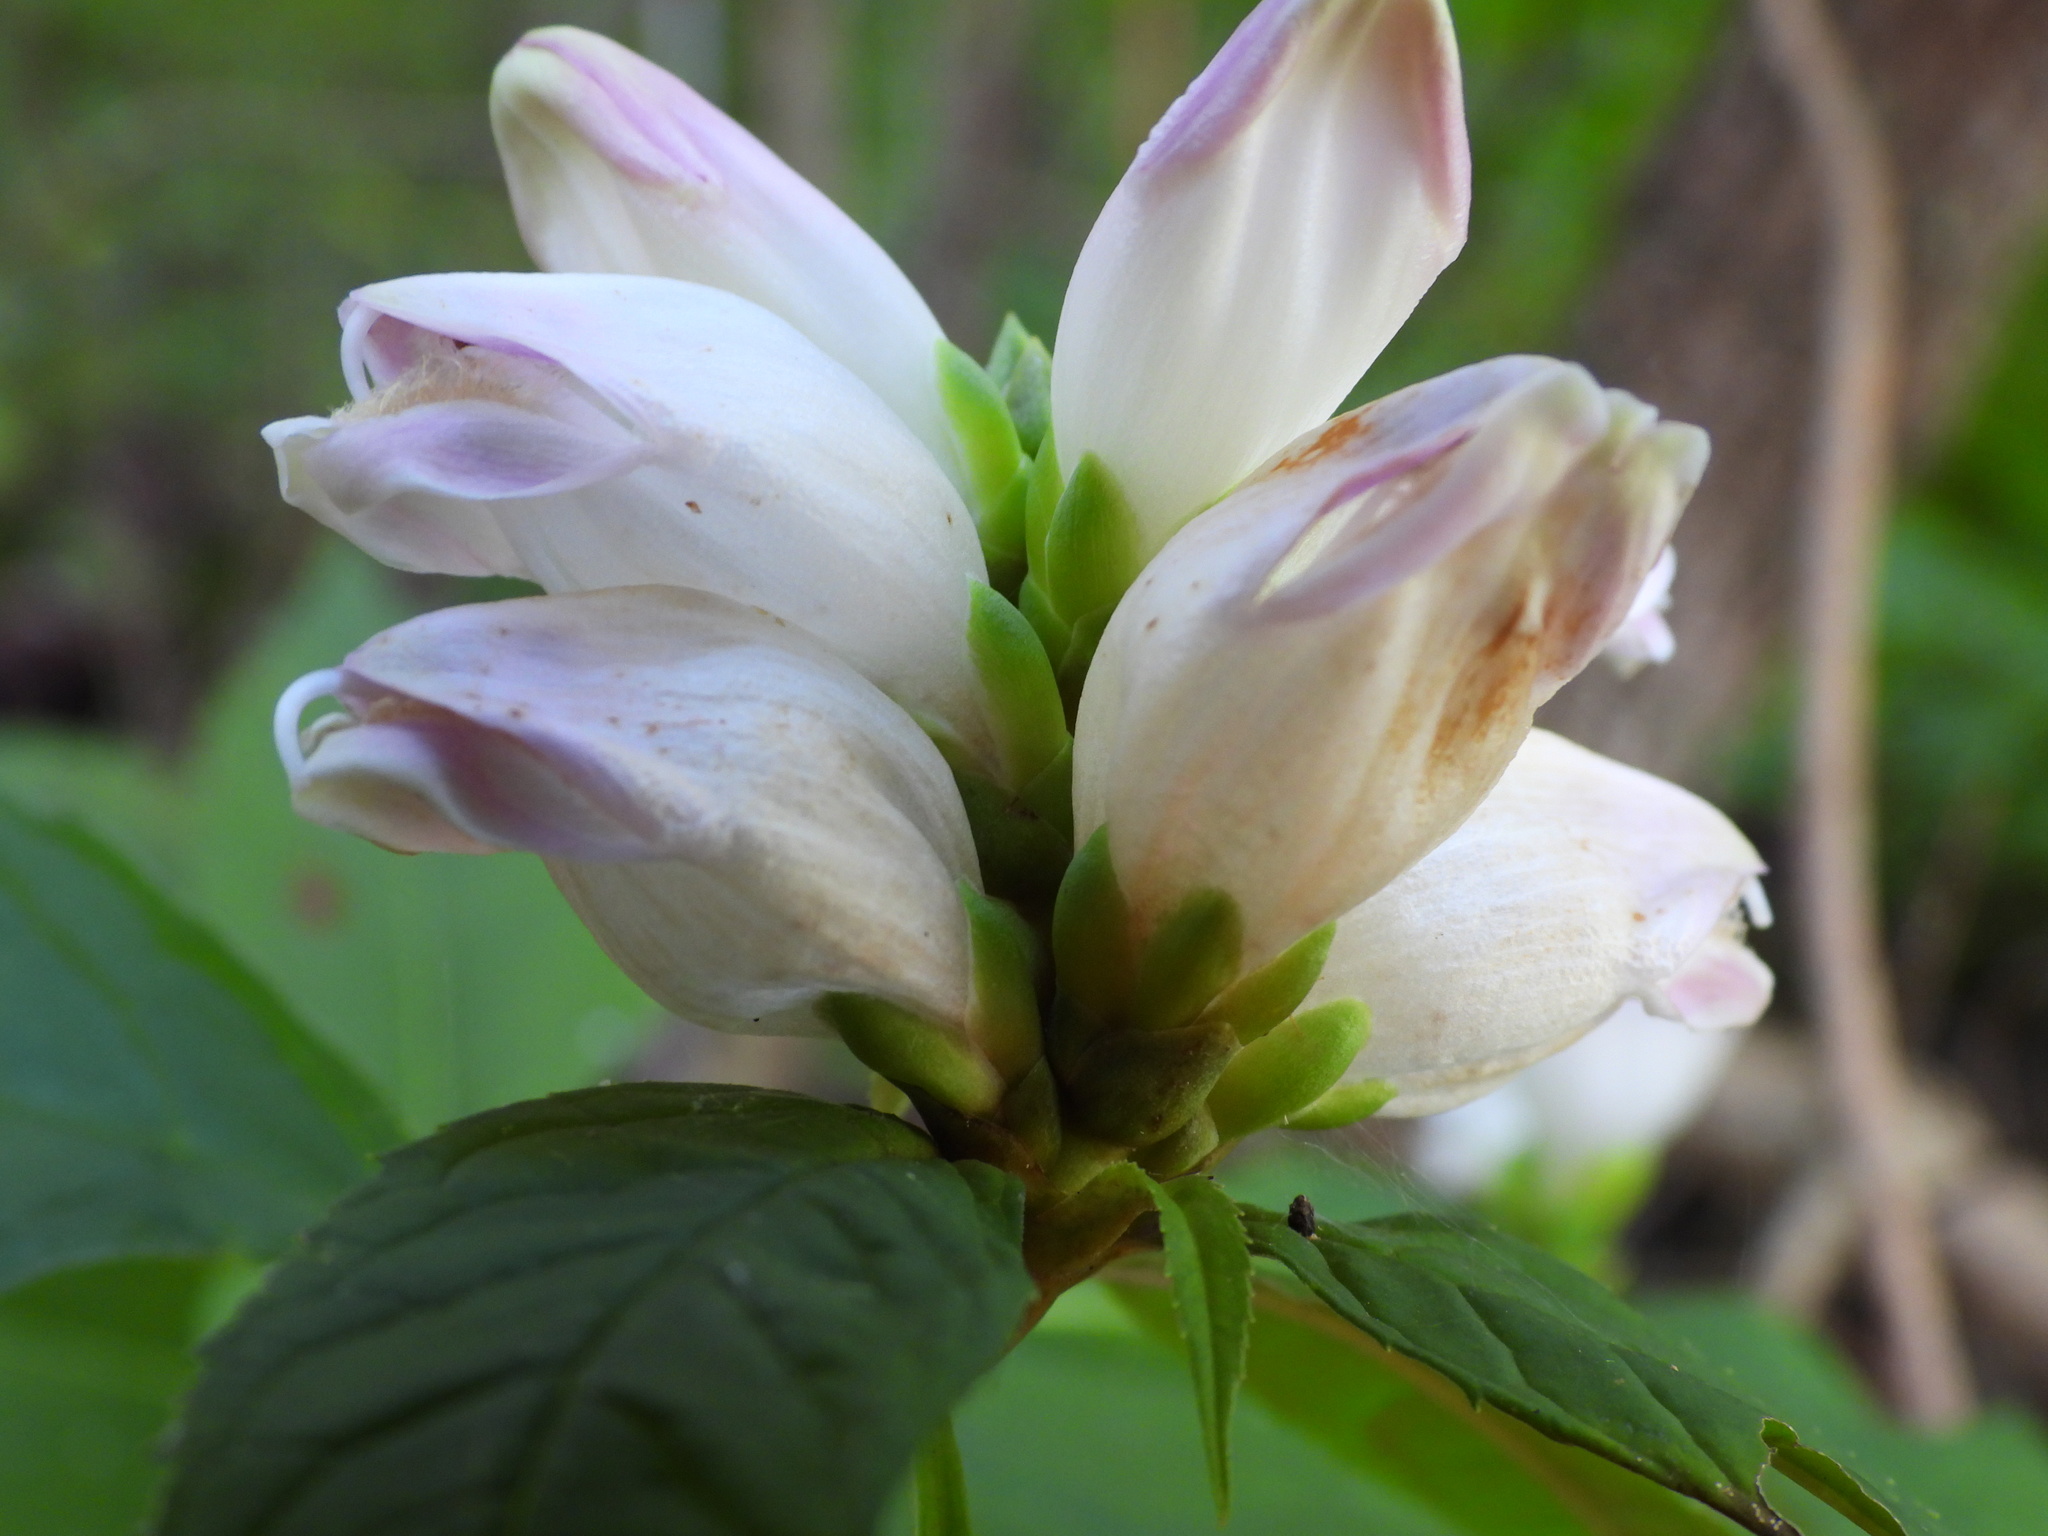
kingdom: Plantae
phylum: Tracheophyta
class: Magnoliopsida
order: Lamiales
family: Plantaginaceae
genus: Chelone
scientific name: Chelone glabra
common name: Snakehead
